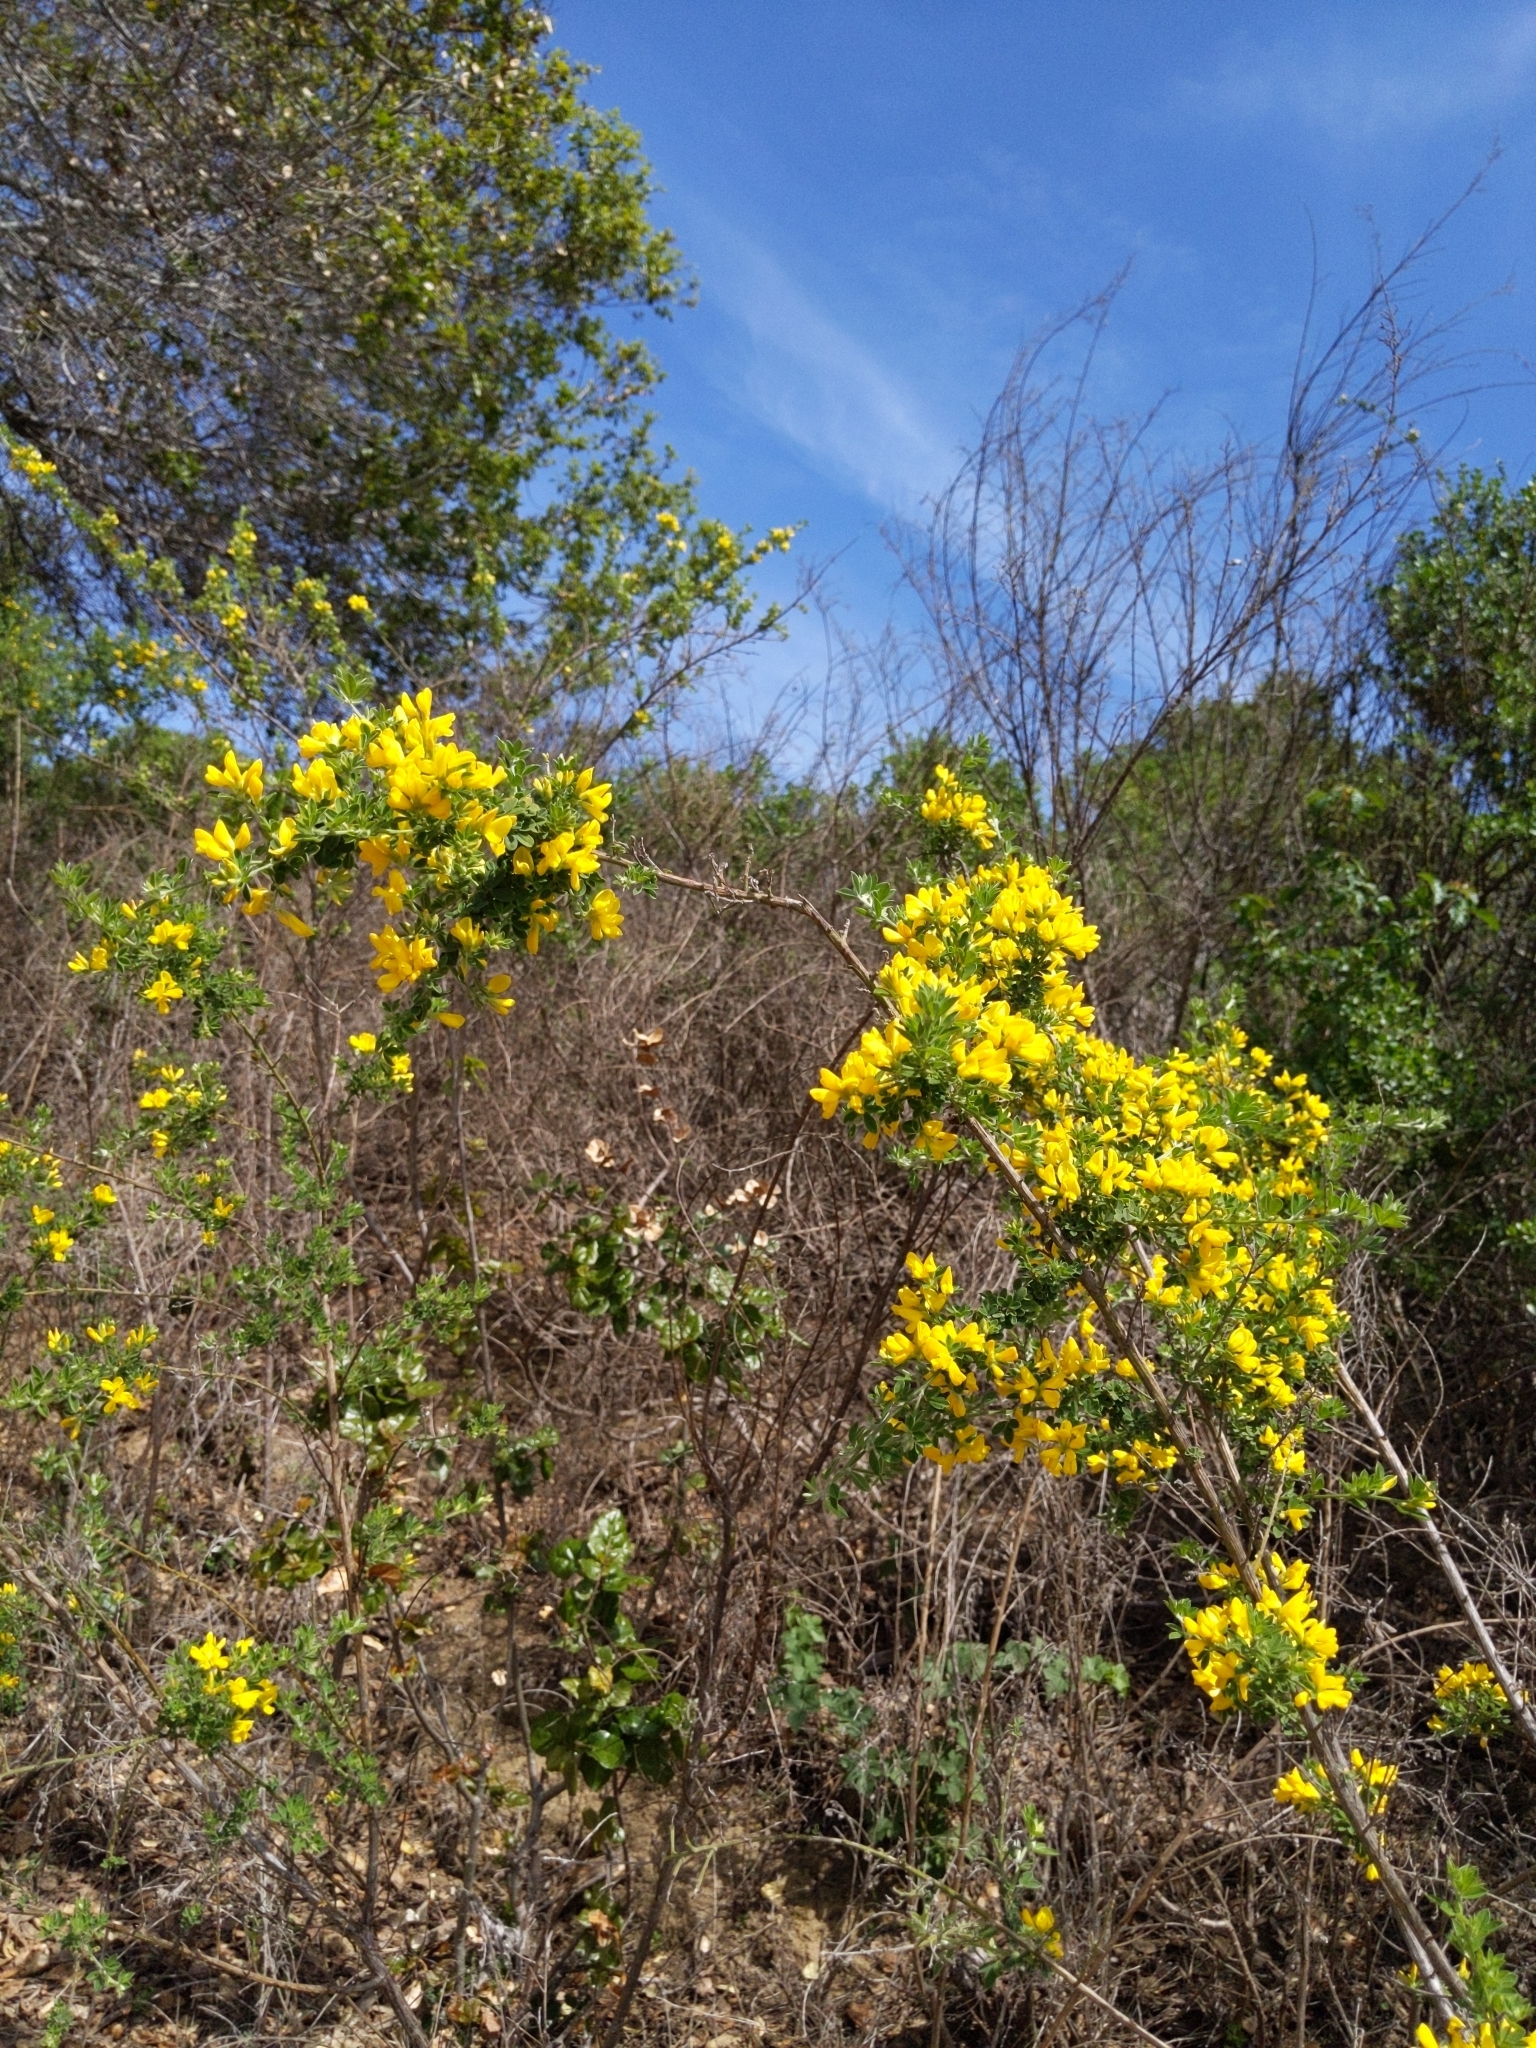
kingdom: Plantae
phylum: Tracheophyta
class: Magnoliopsida
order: Fabales
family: Fabaceae
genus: Genista
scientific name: Genista monspessulana
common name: Montpellier broom
